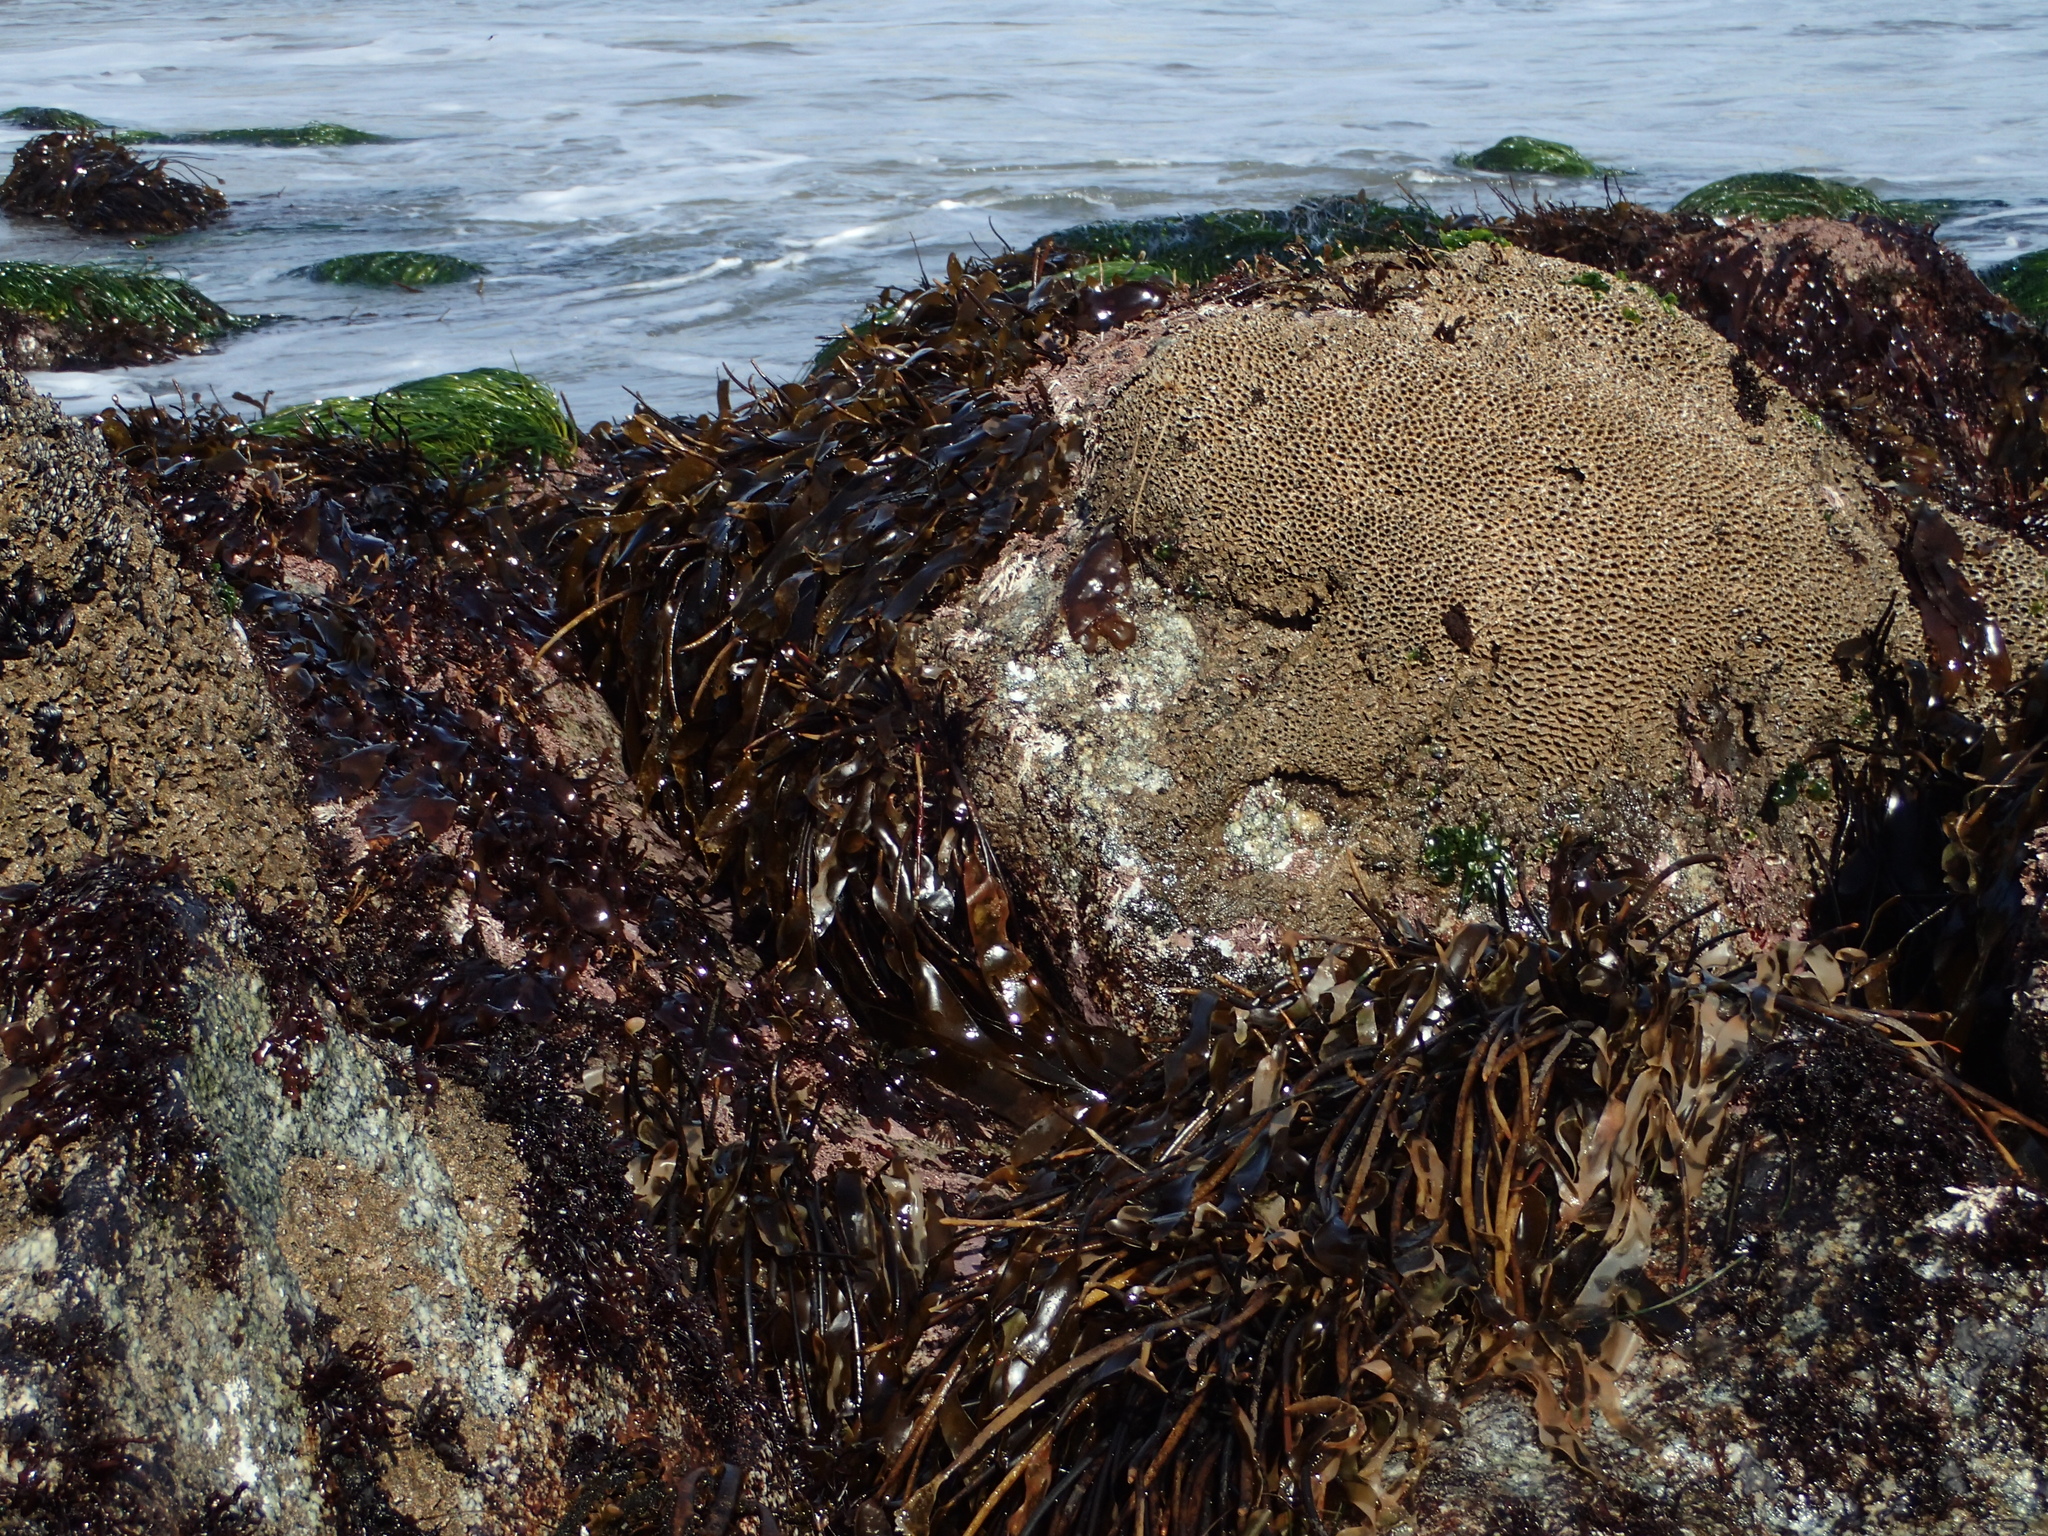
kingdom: Animalia
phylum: Annelida
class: Polychaeta
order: Sabellida
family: Sabellariidae
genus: Phragmatopoma
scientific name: Phragmatopoma californica
